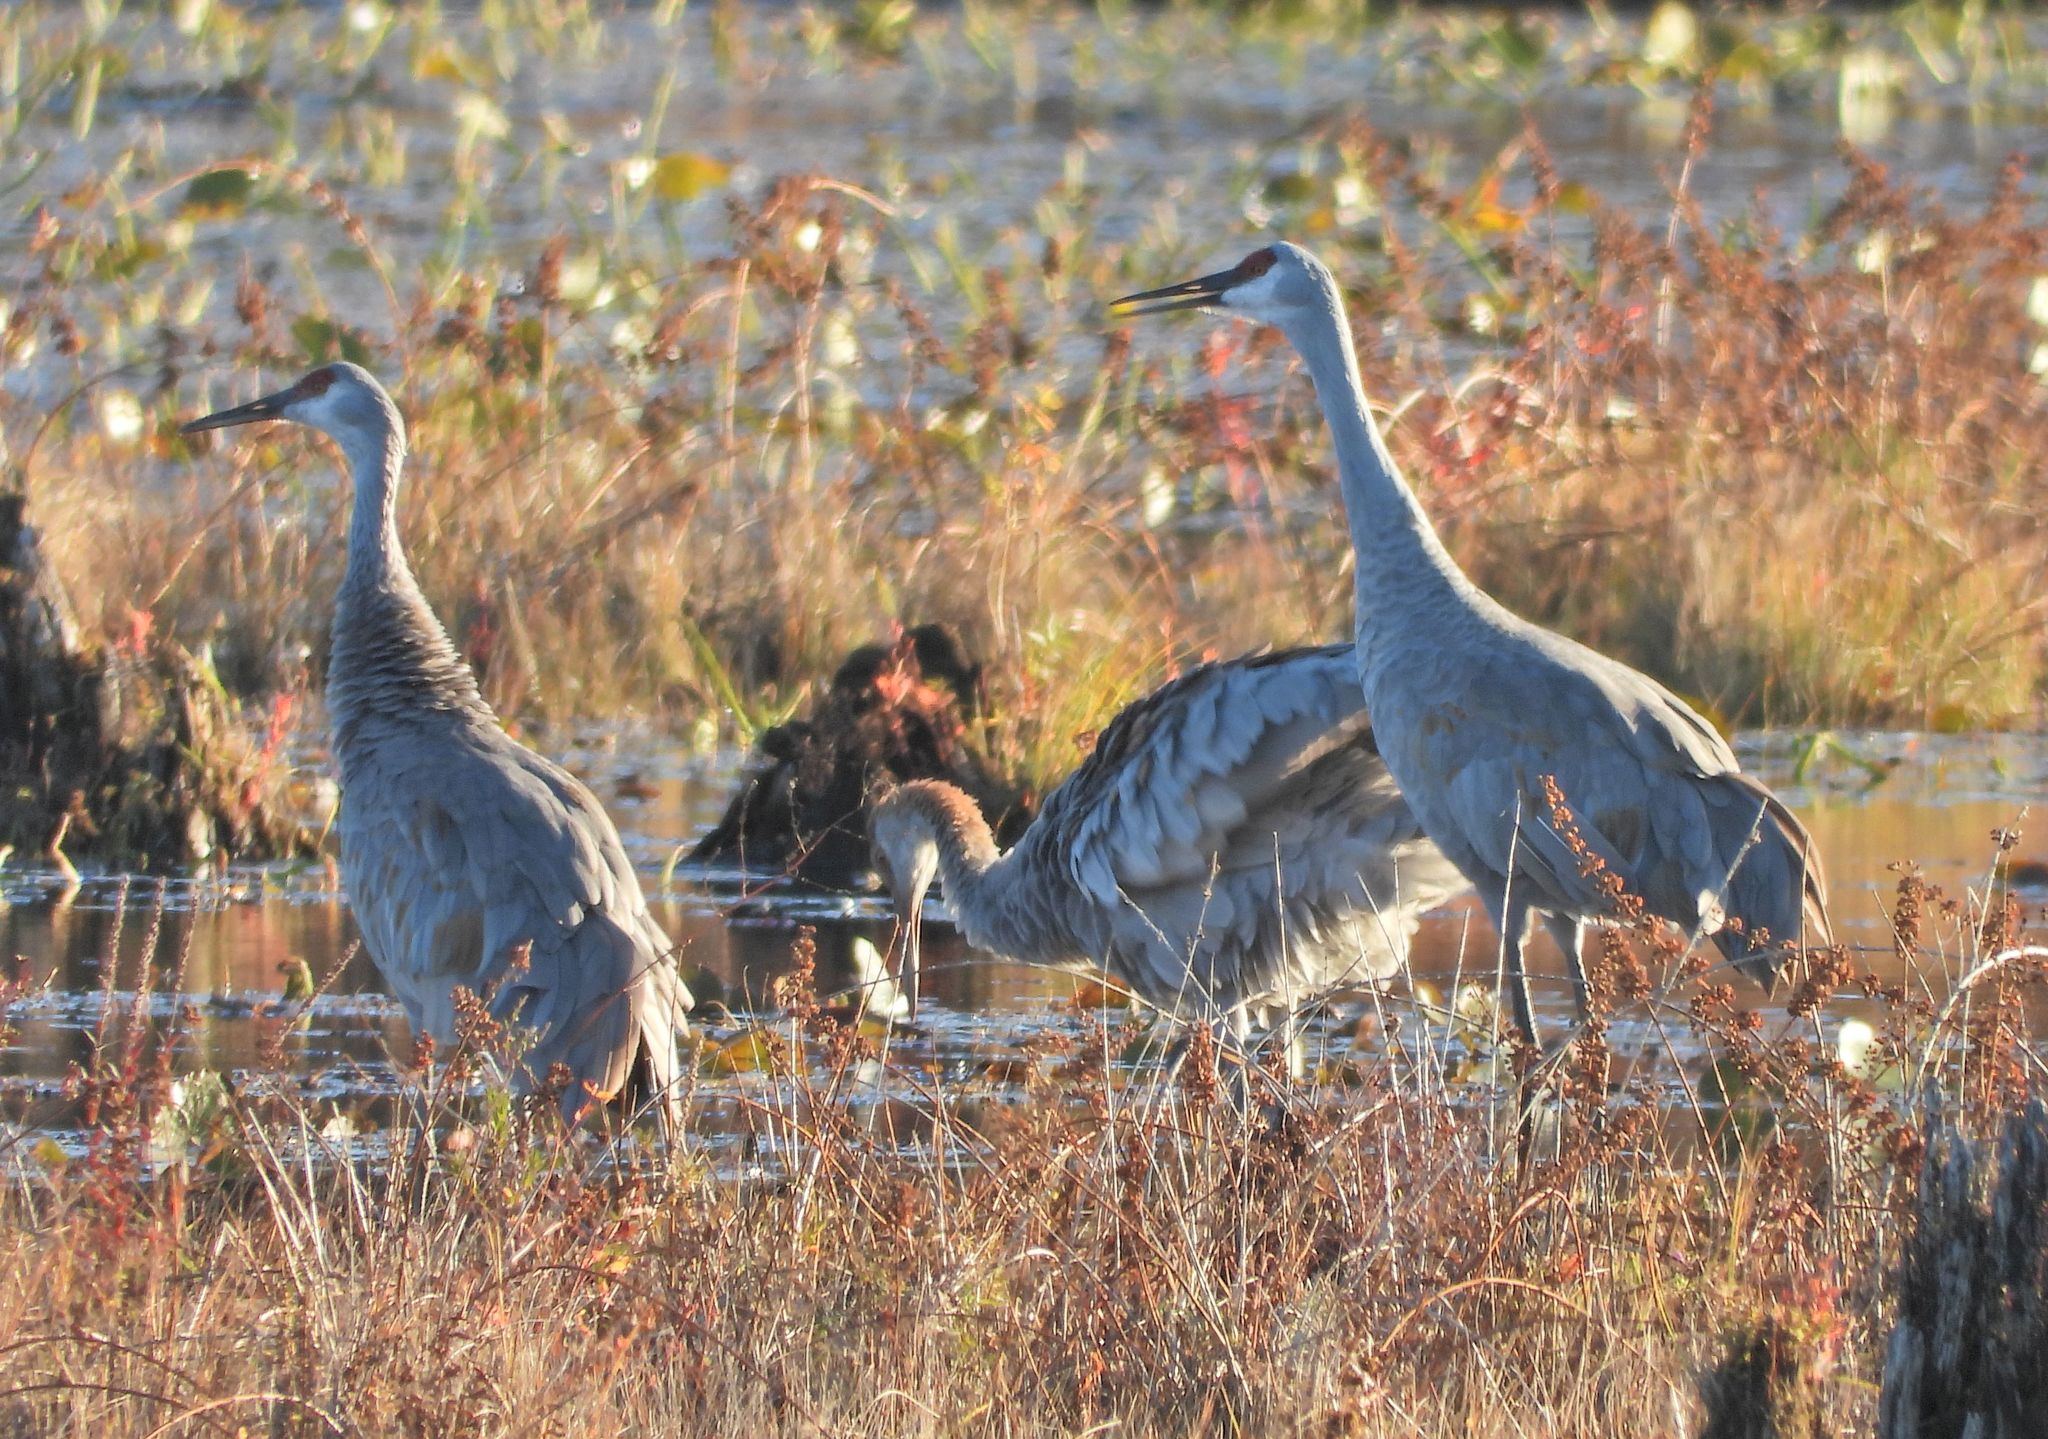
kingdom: Animalia
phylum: Chordata
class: Aves
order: Gruiformes
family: Gruidae
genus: Grus
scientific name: Grus canadensis
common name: Sandhill crane
